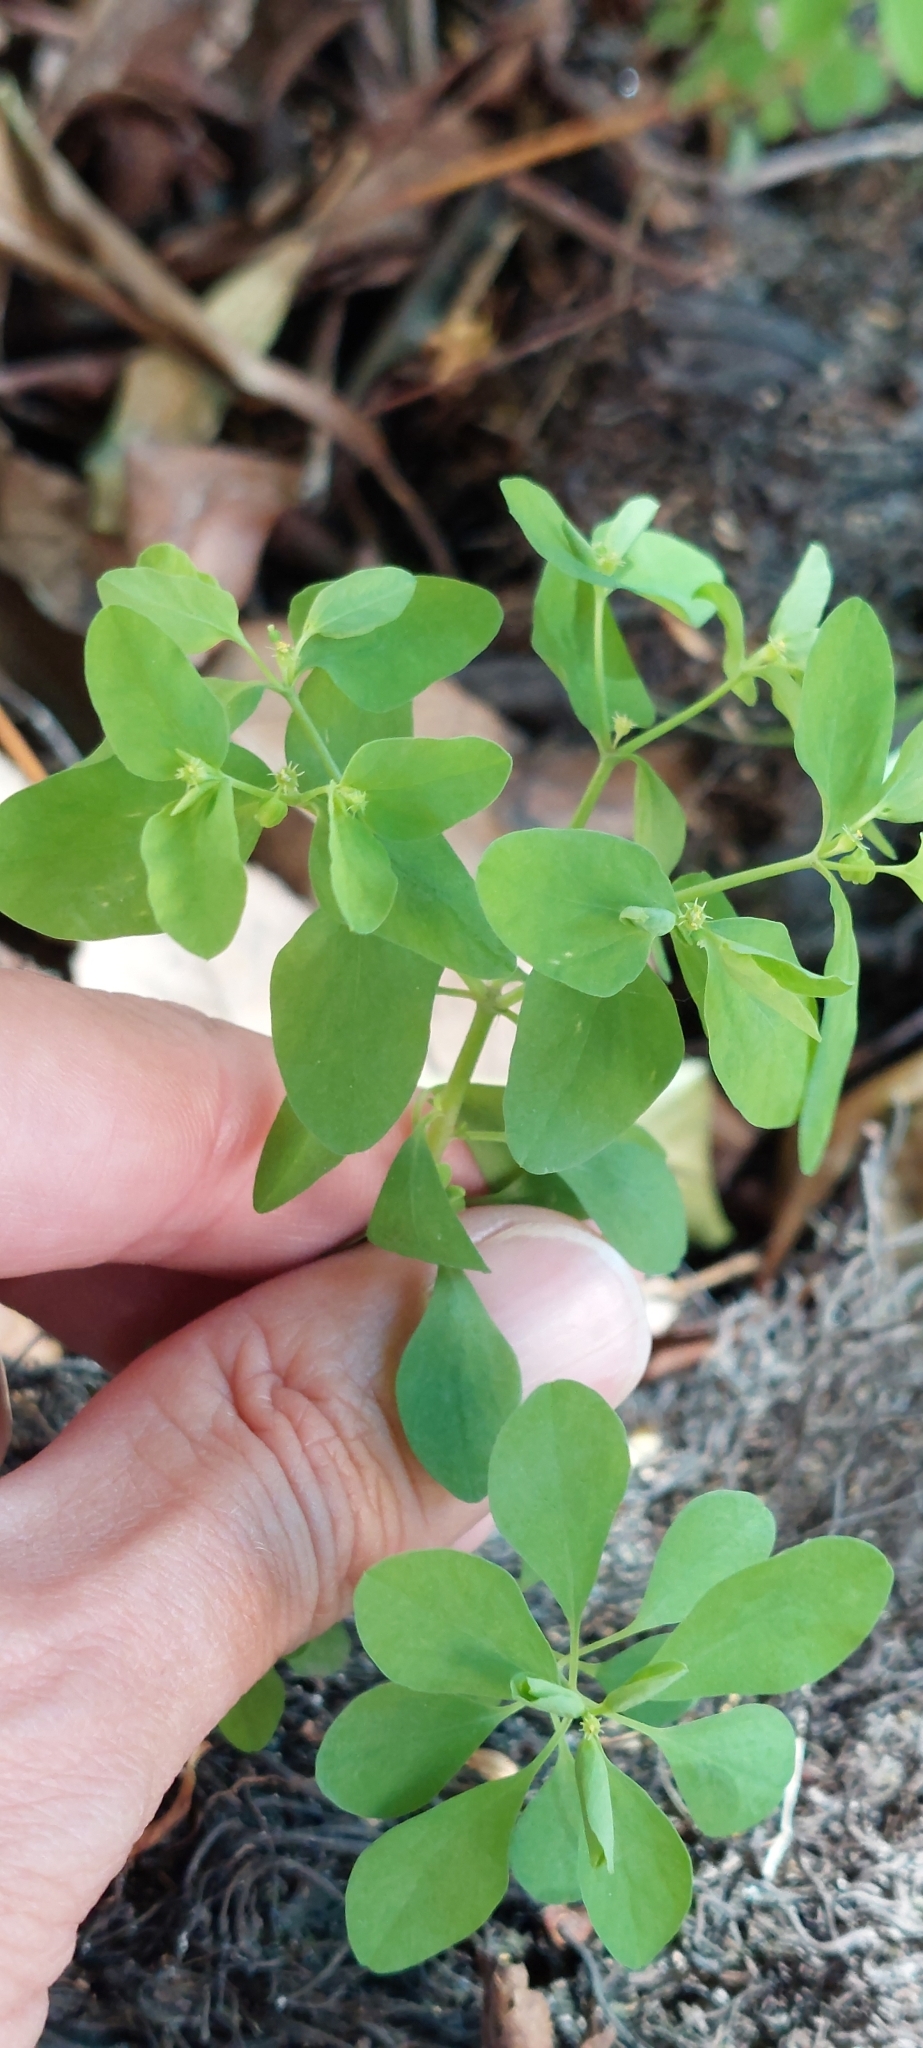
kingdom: Plantae
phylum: Tracheophyta
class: Magnoliopsida
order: Malpighiales
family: Euphorbiaceae
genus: Euphorbia
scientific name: Euphorbia peplus
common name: Petty spurge
